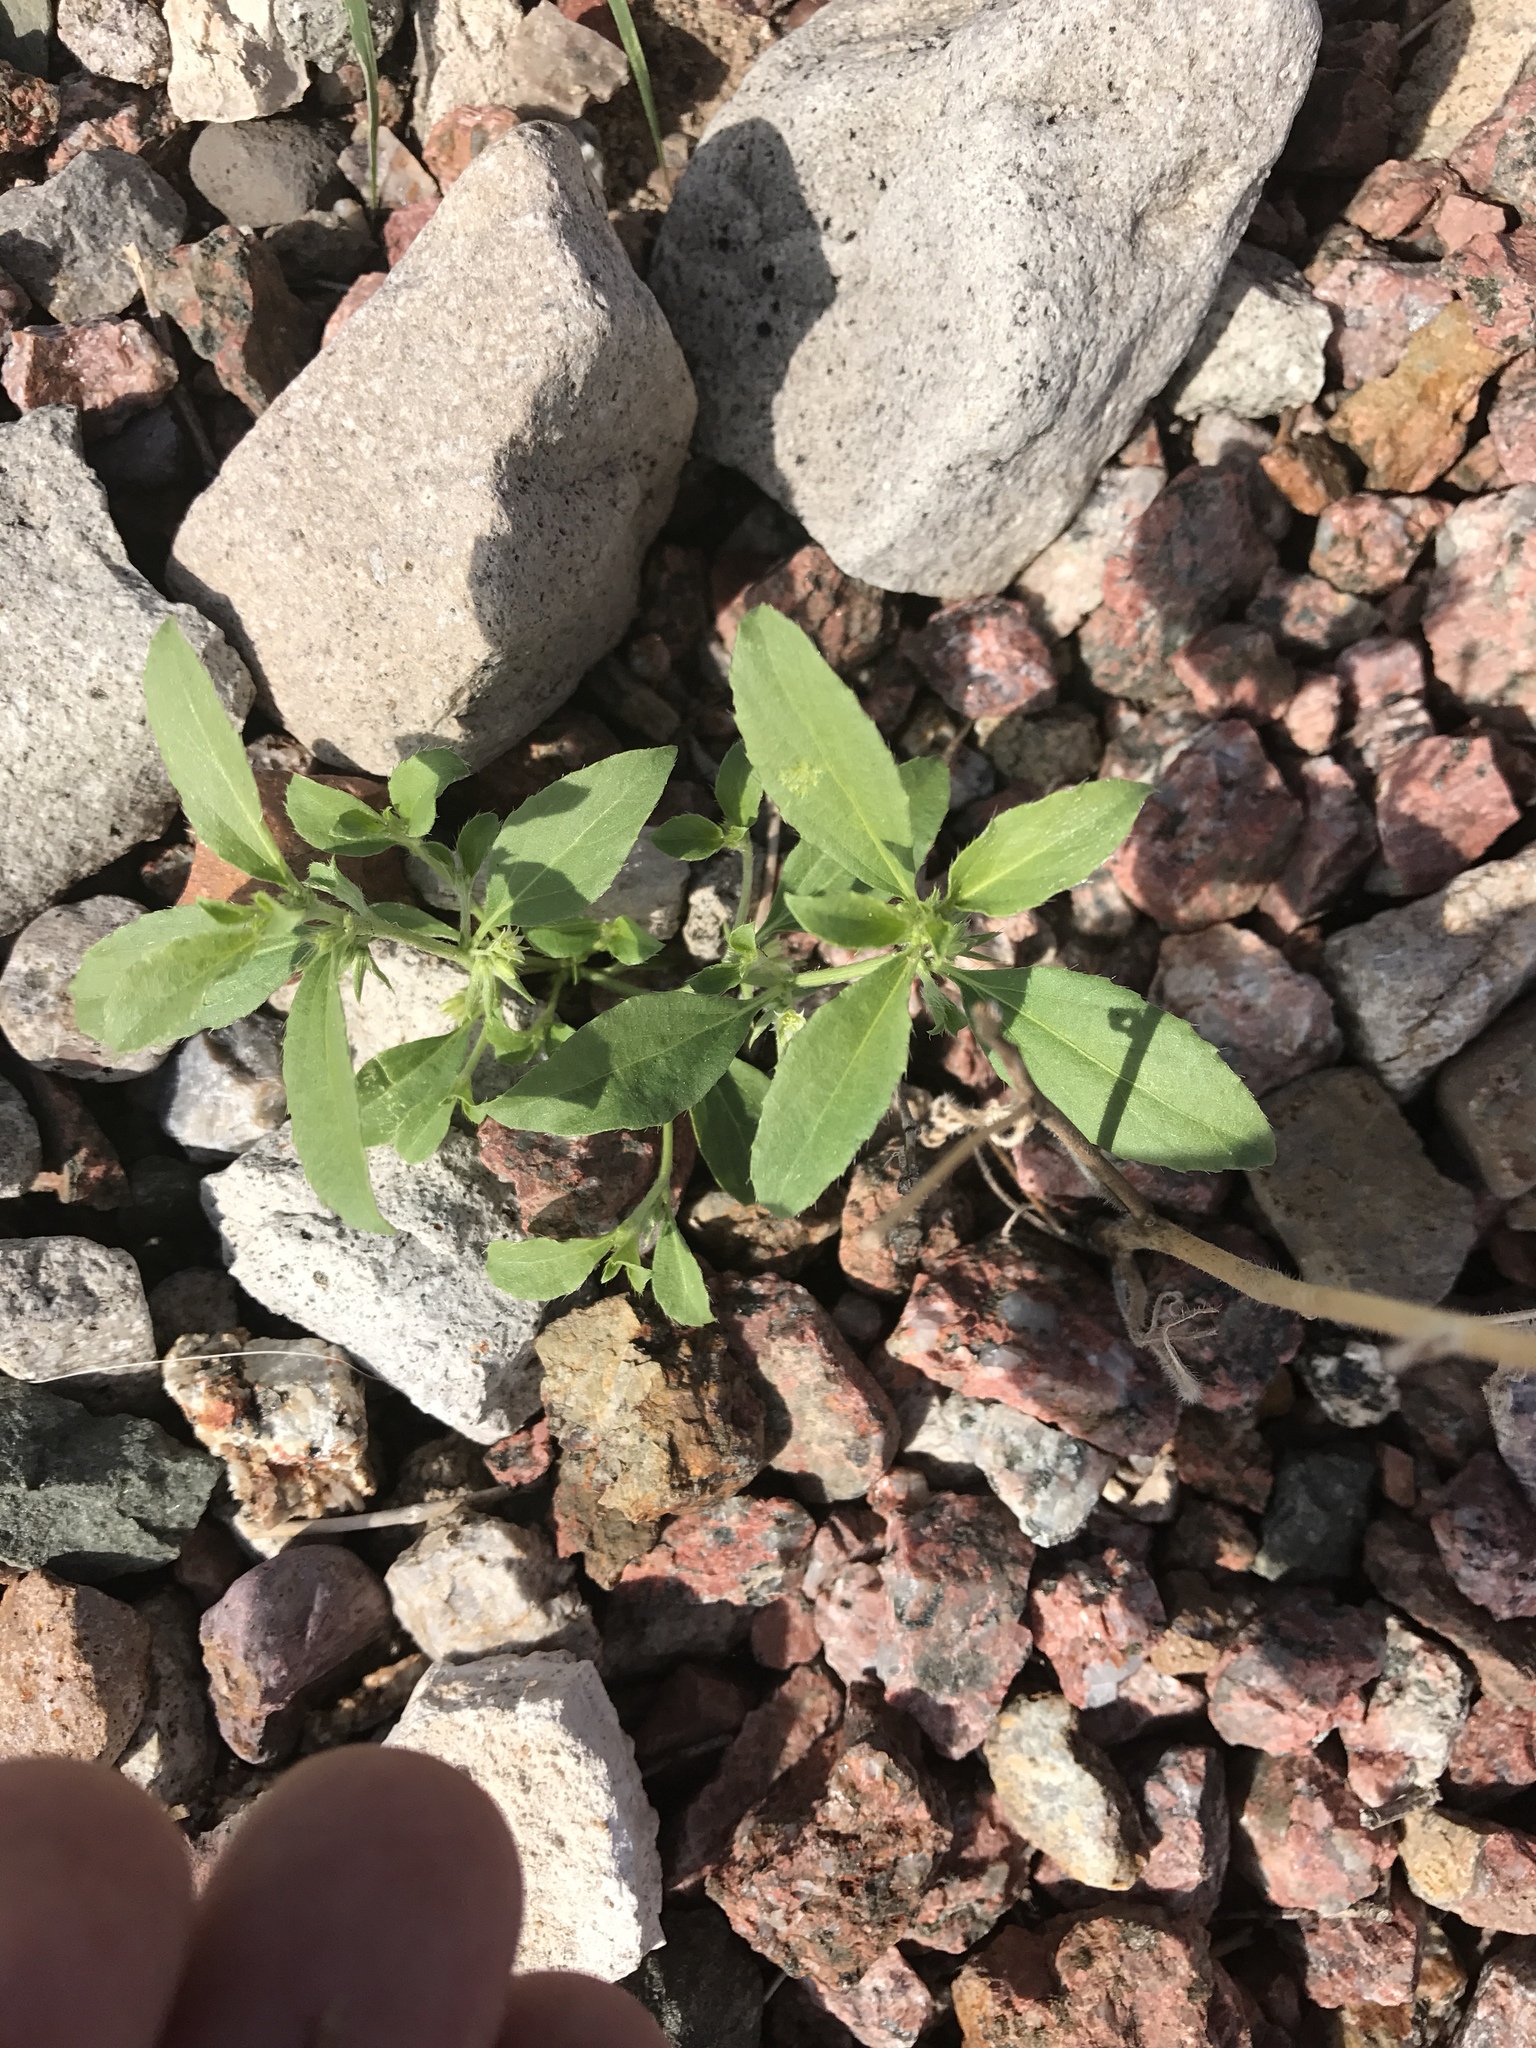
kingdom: Plantae
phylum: Tracheophyta
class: Magnoliopsida
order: Malpighiales
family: Euphorbiaceae
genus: Ditaxis
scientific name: Ditaxis serrata
